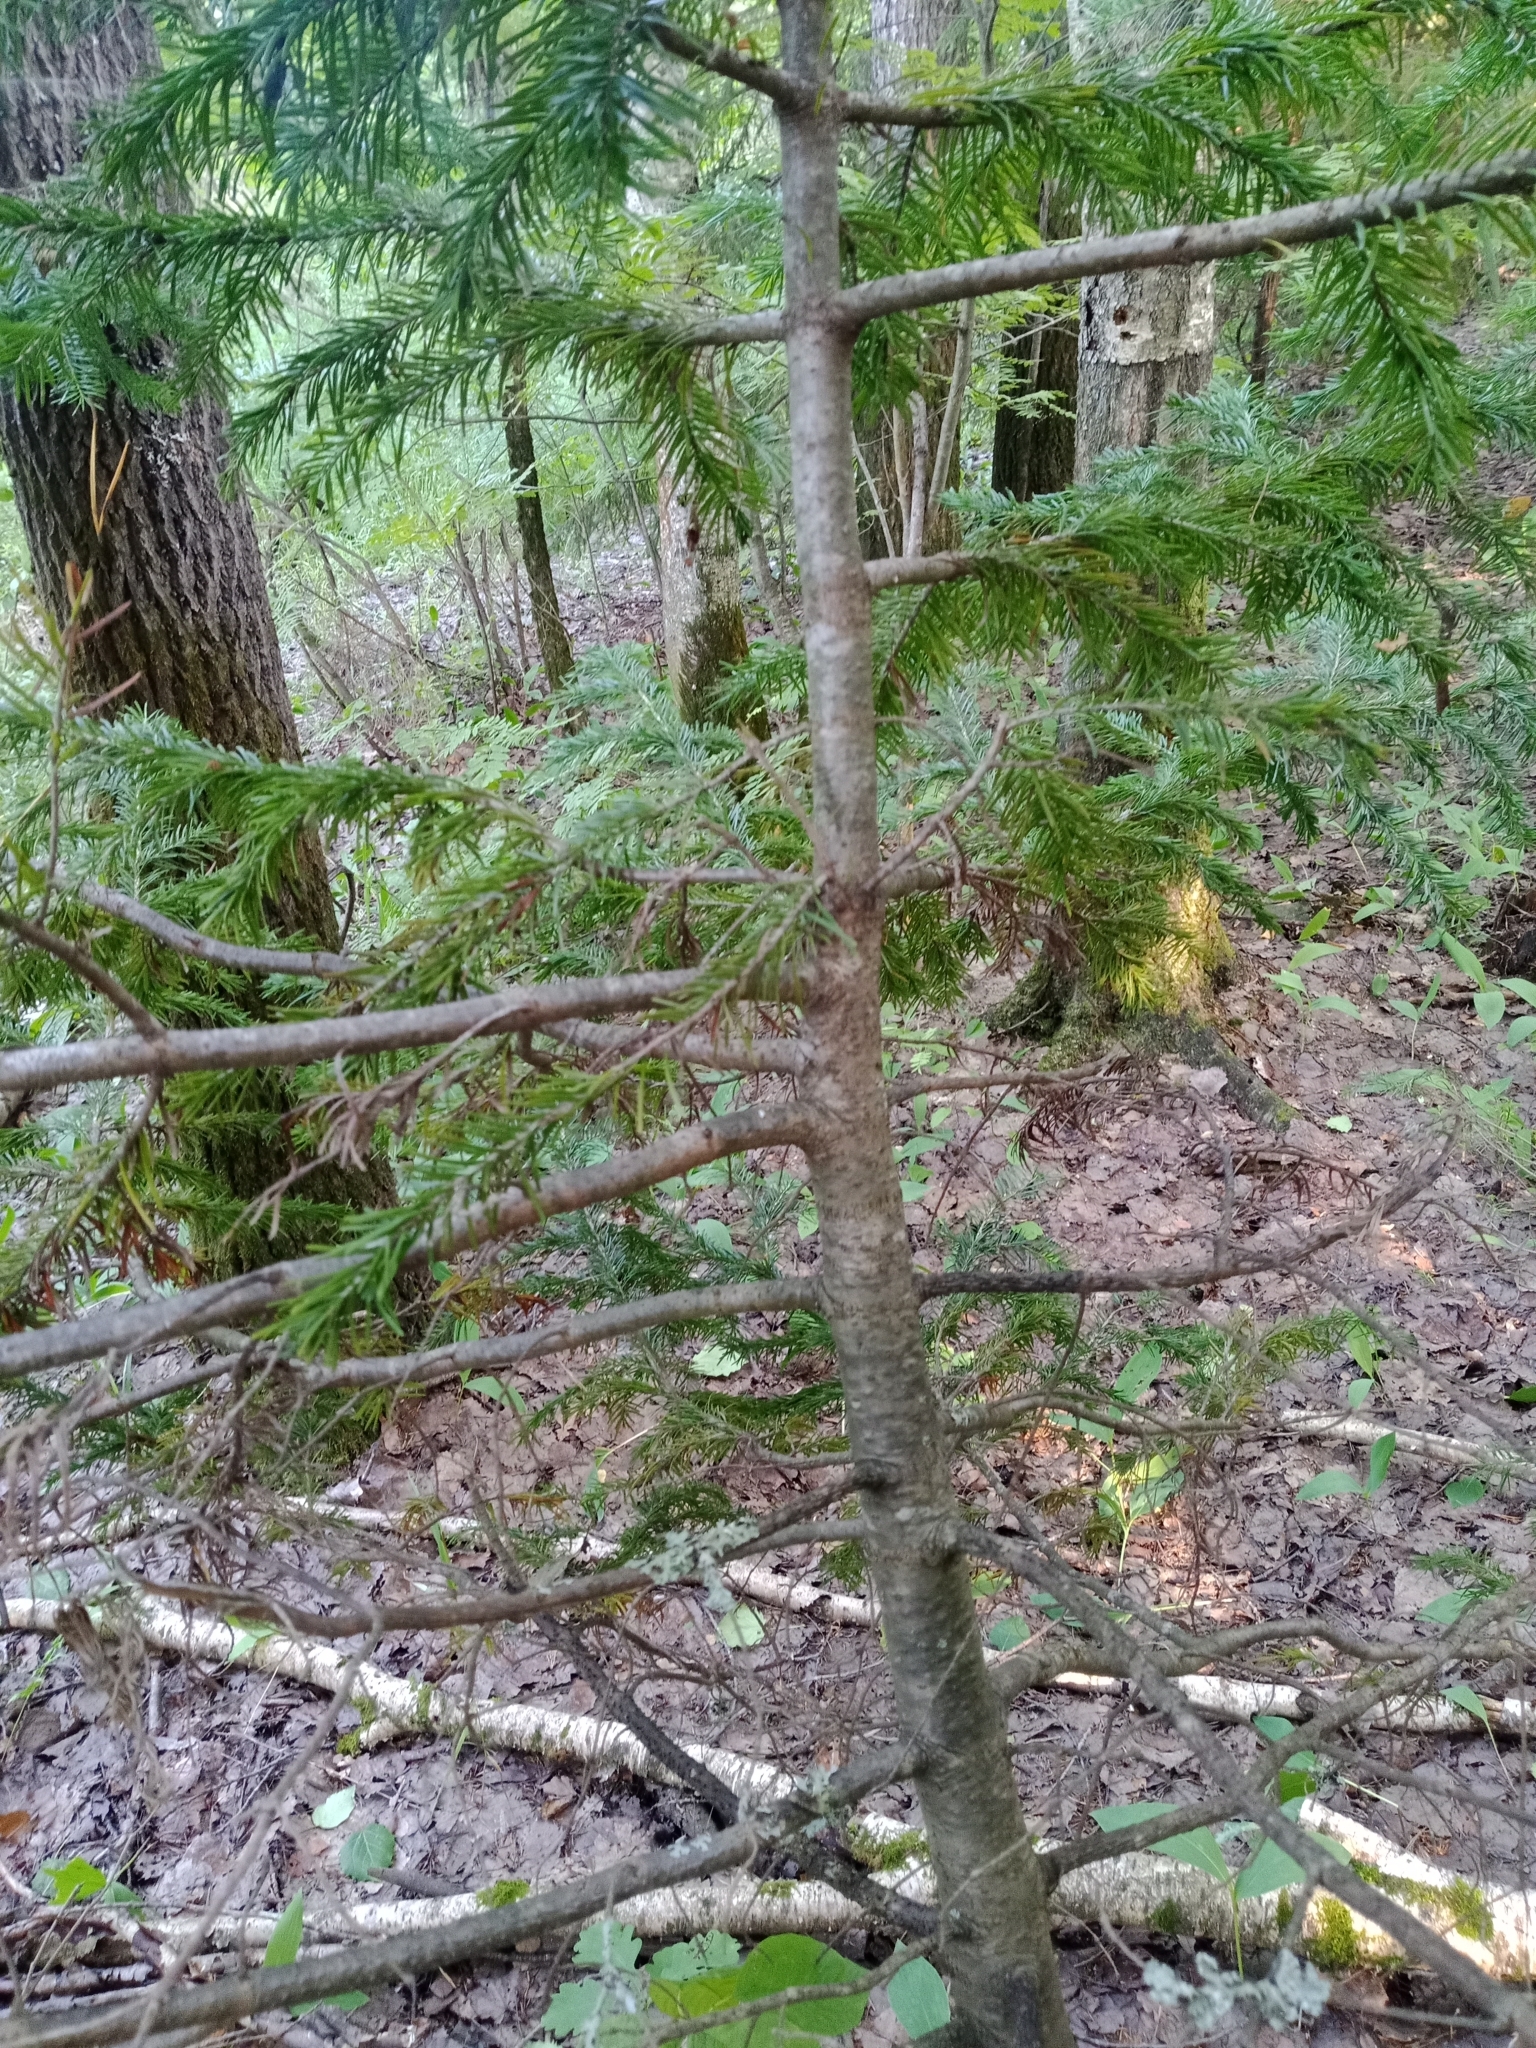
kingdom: Plantae
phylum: Tracheophyta
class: Pinopsida
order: Pinales
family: Pinaceae
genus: Abies
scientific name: Abies sibirica
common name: Siberian fir
